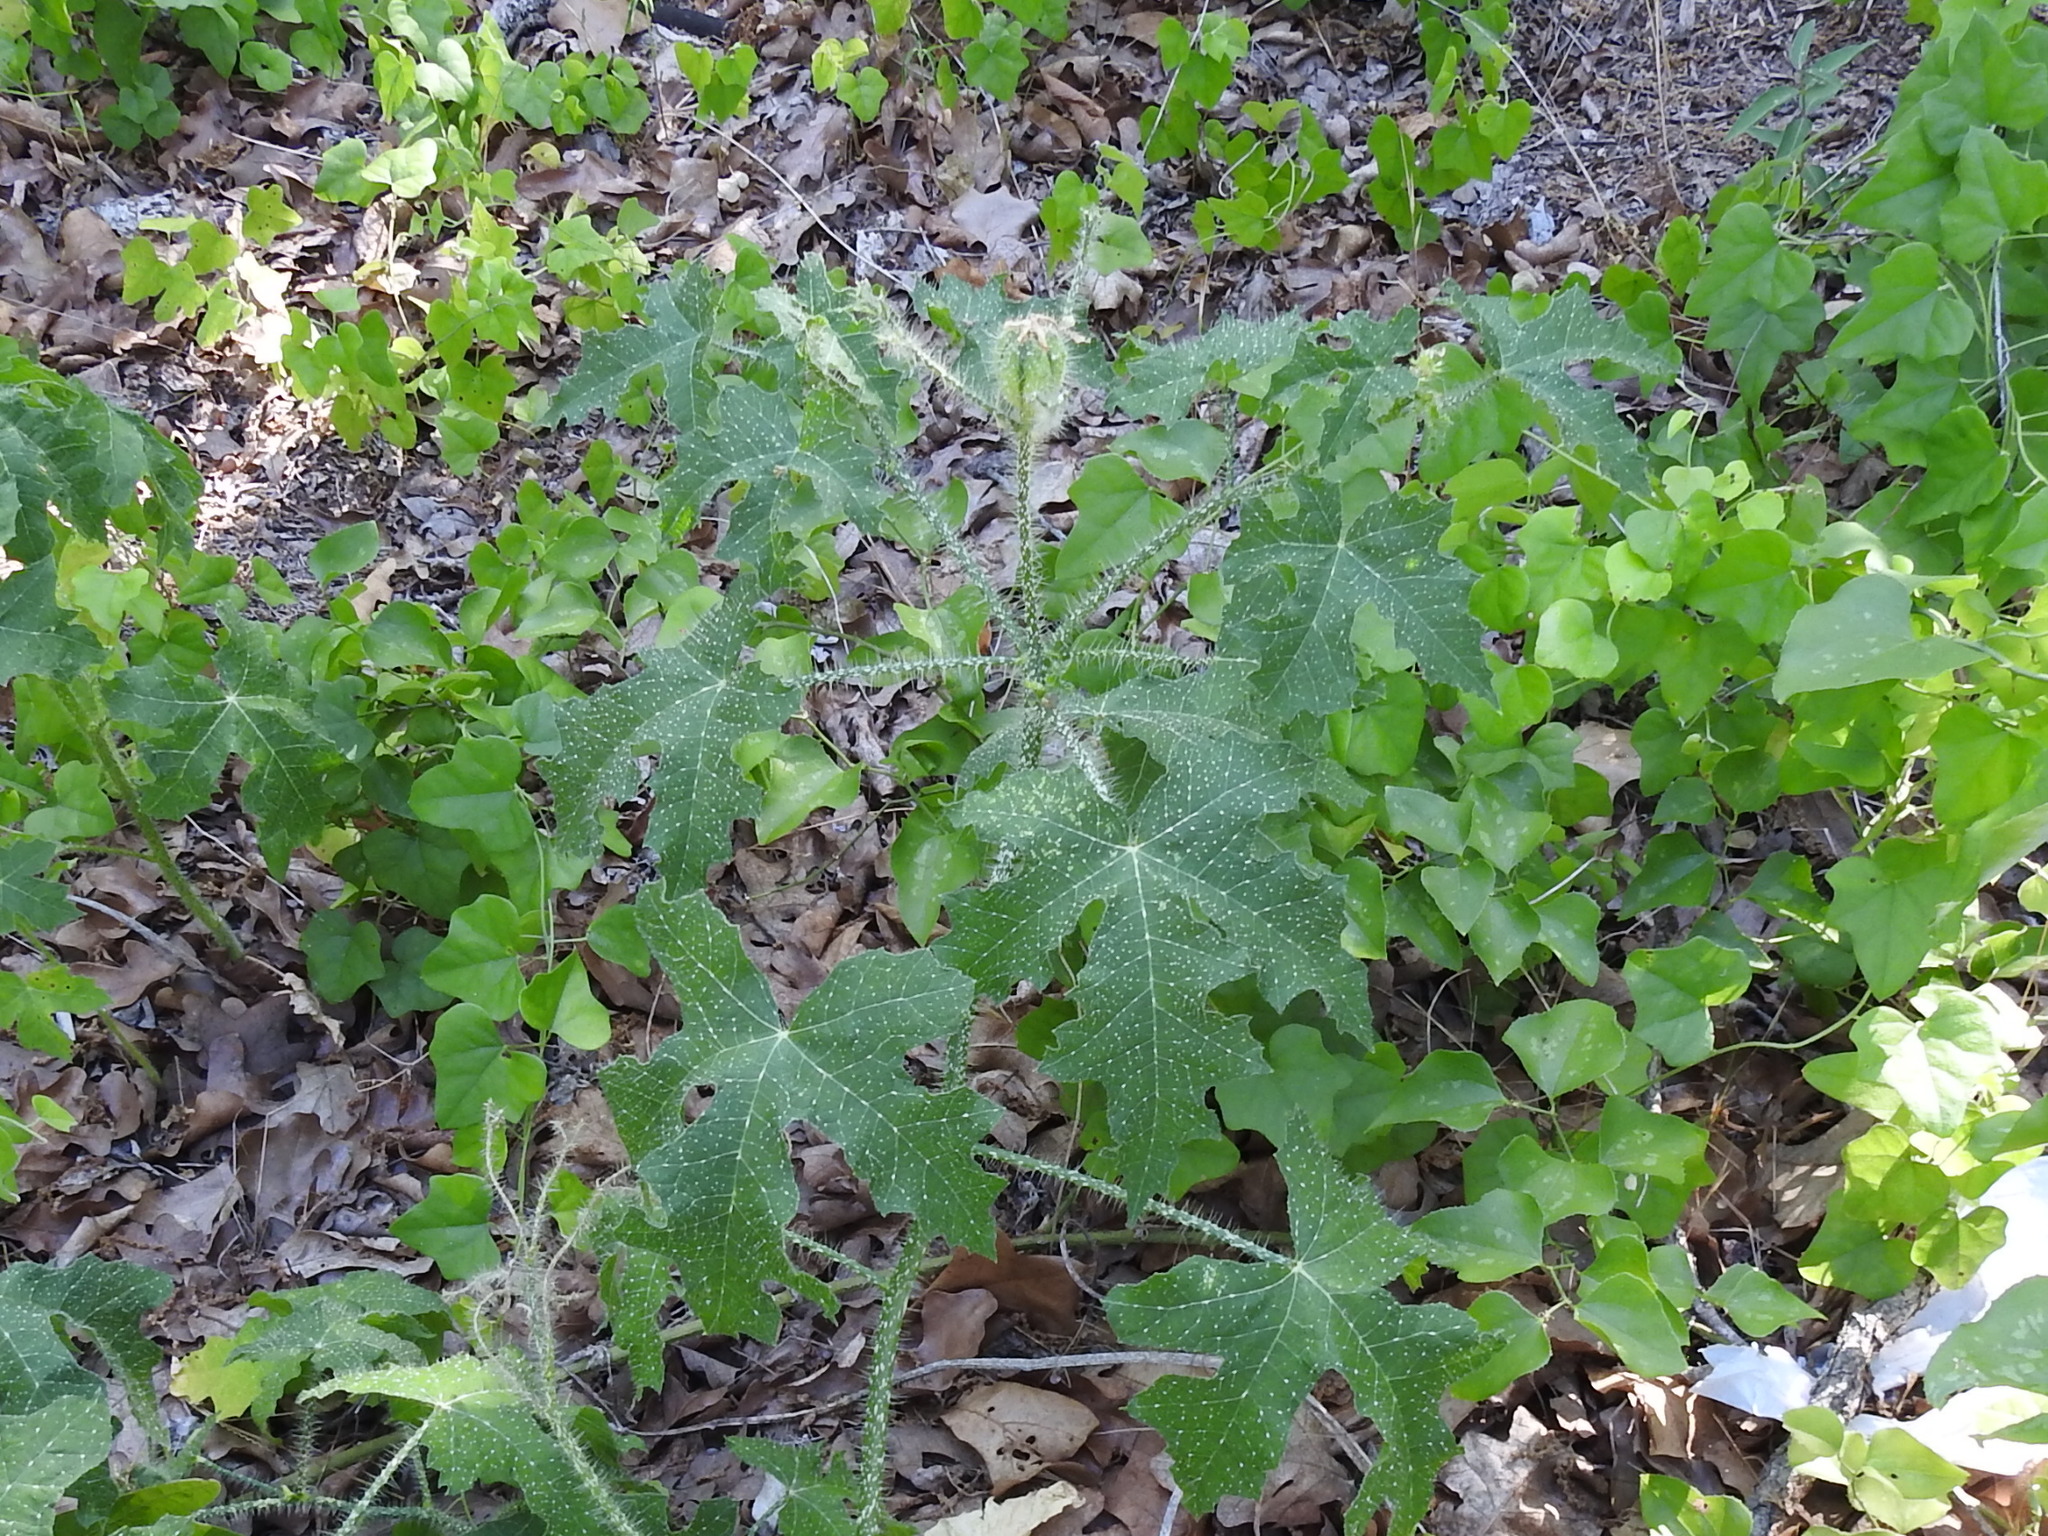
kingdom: Plantae
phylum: Tracheophyta
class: Magnoliopsida
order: Malpighiales
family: Euphorbiaceae
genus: Cnidoscolus
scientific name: Cnidoscolus texanus
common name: Texas bull-nettle
